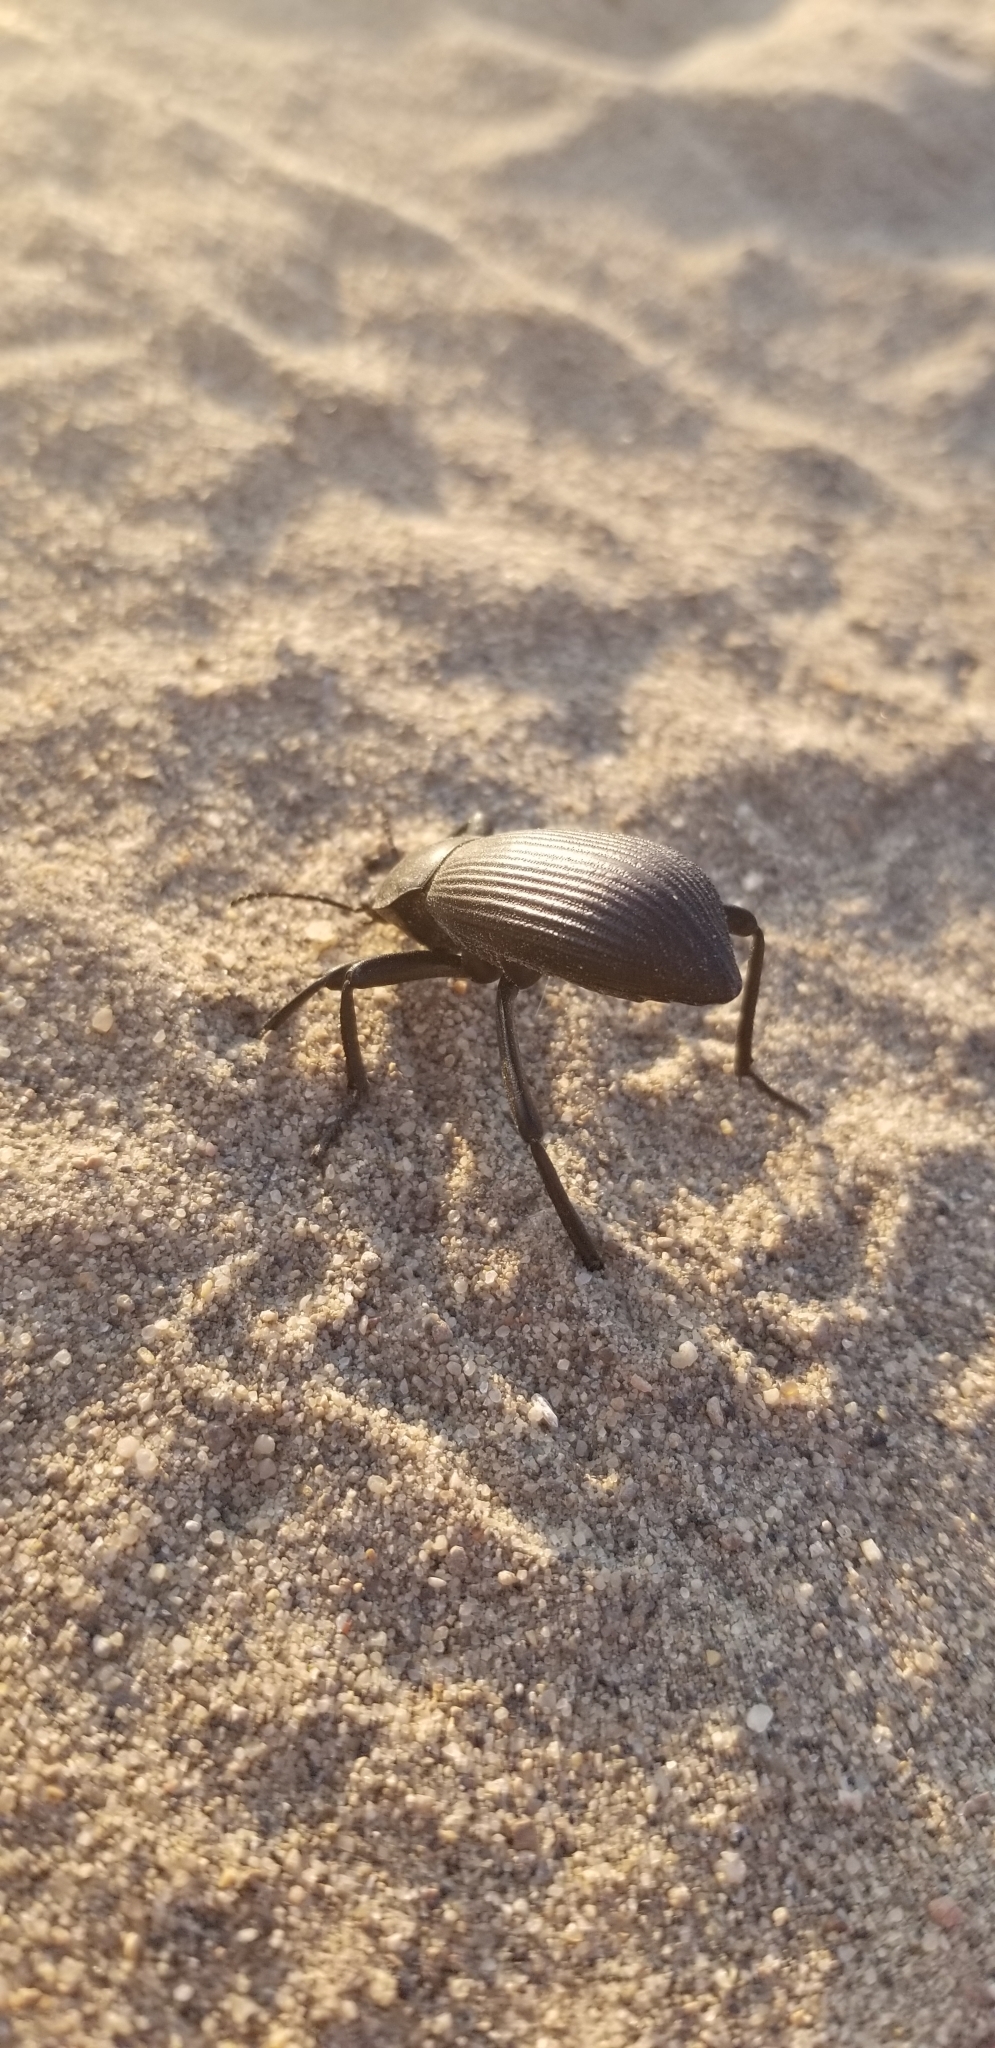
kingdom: Animalia
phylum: Arthropoda
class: Insecta
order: Coleoptera
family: Tenebrionidae
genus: Eleodes
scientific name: Eleodes obscura
